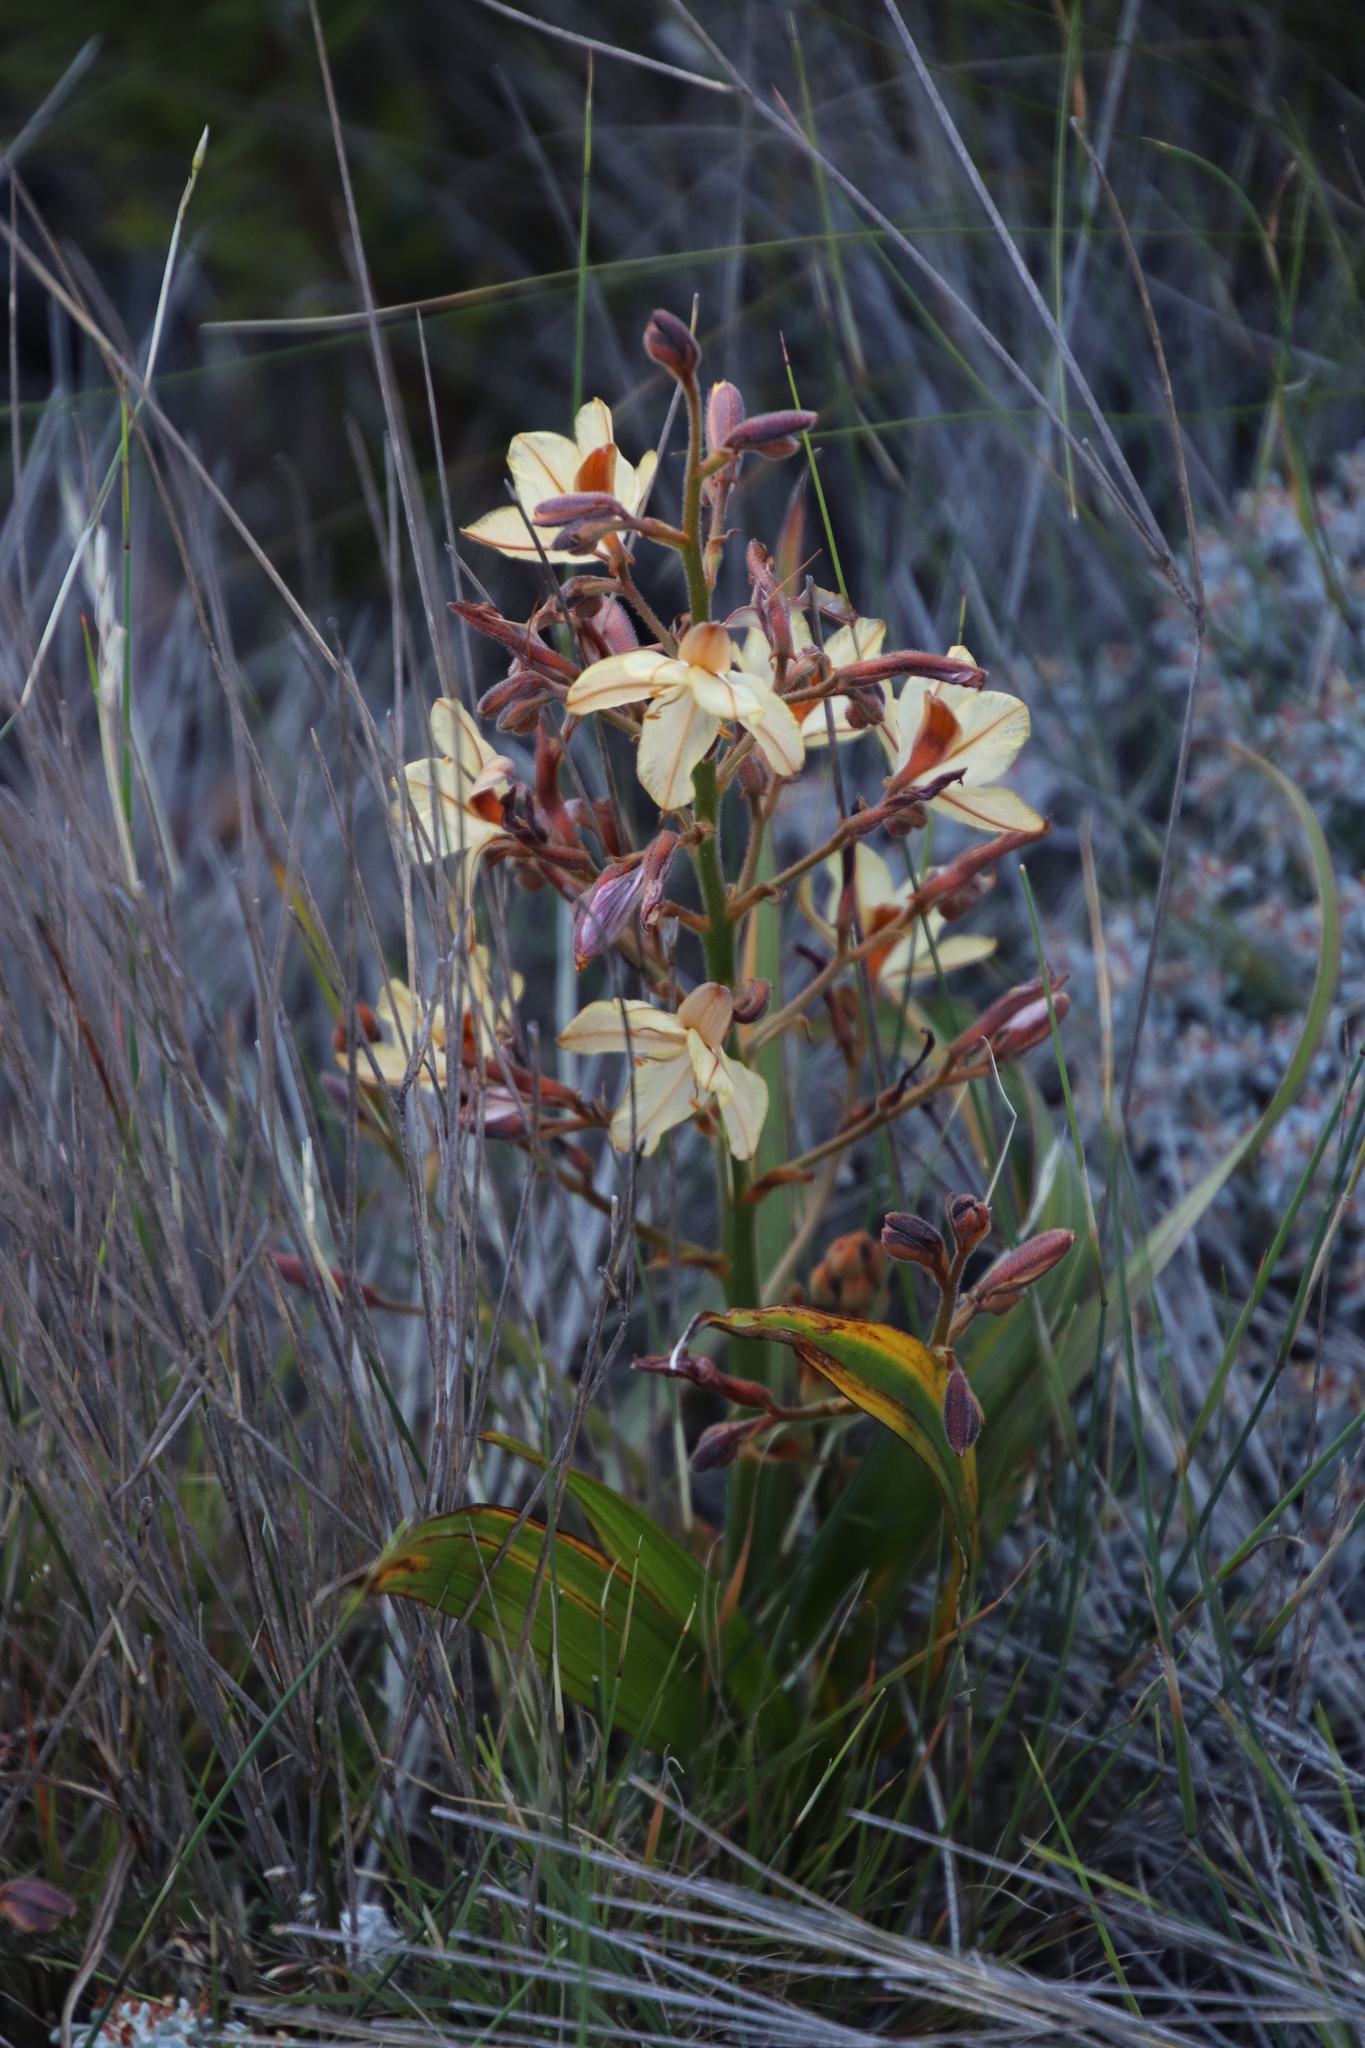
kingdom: Plantae
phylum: Tracheophyta
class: Liliopsida
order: Commelinales
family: Haemodoraceae
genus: Wachendorfia
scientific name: Wachendorfia paniculata
